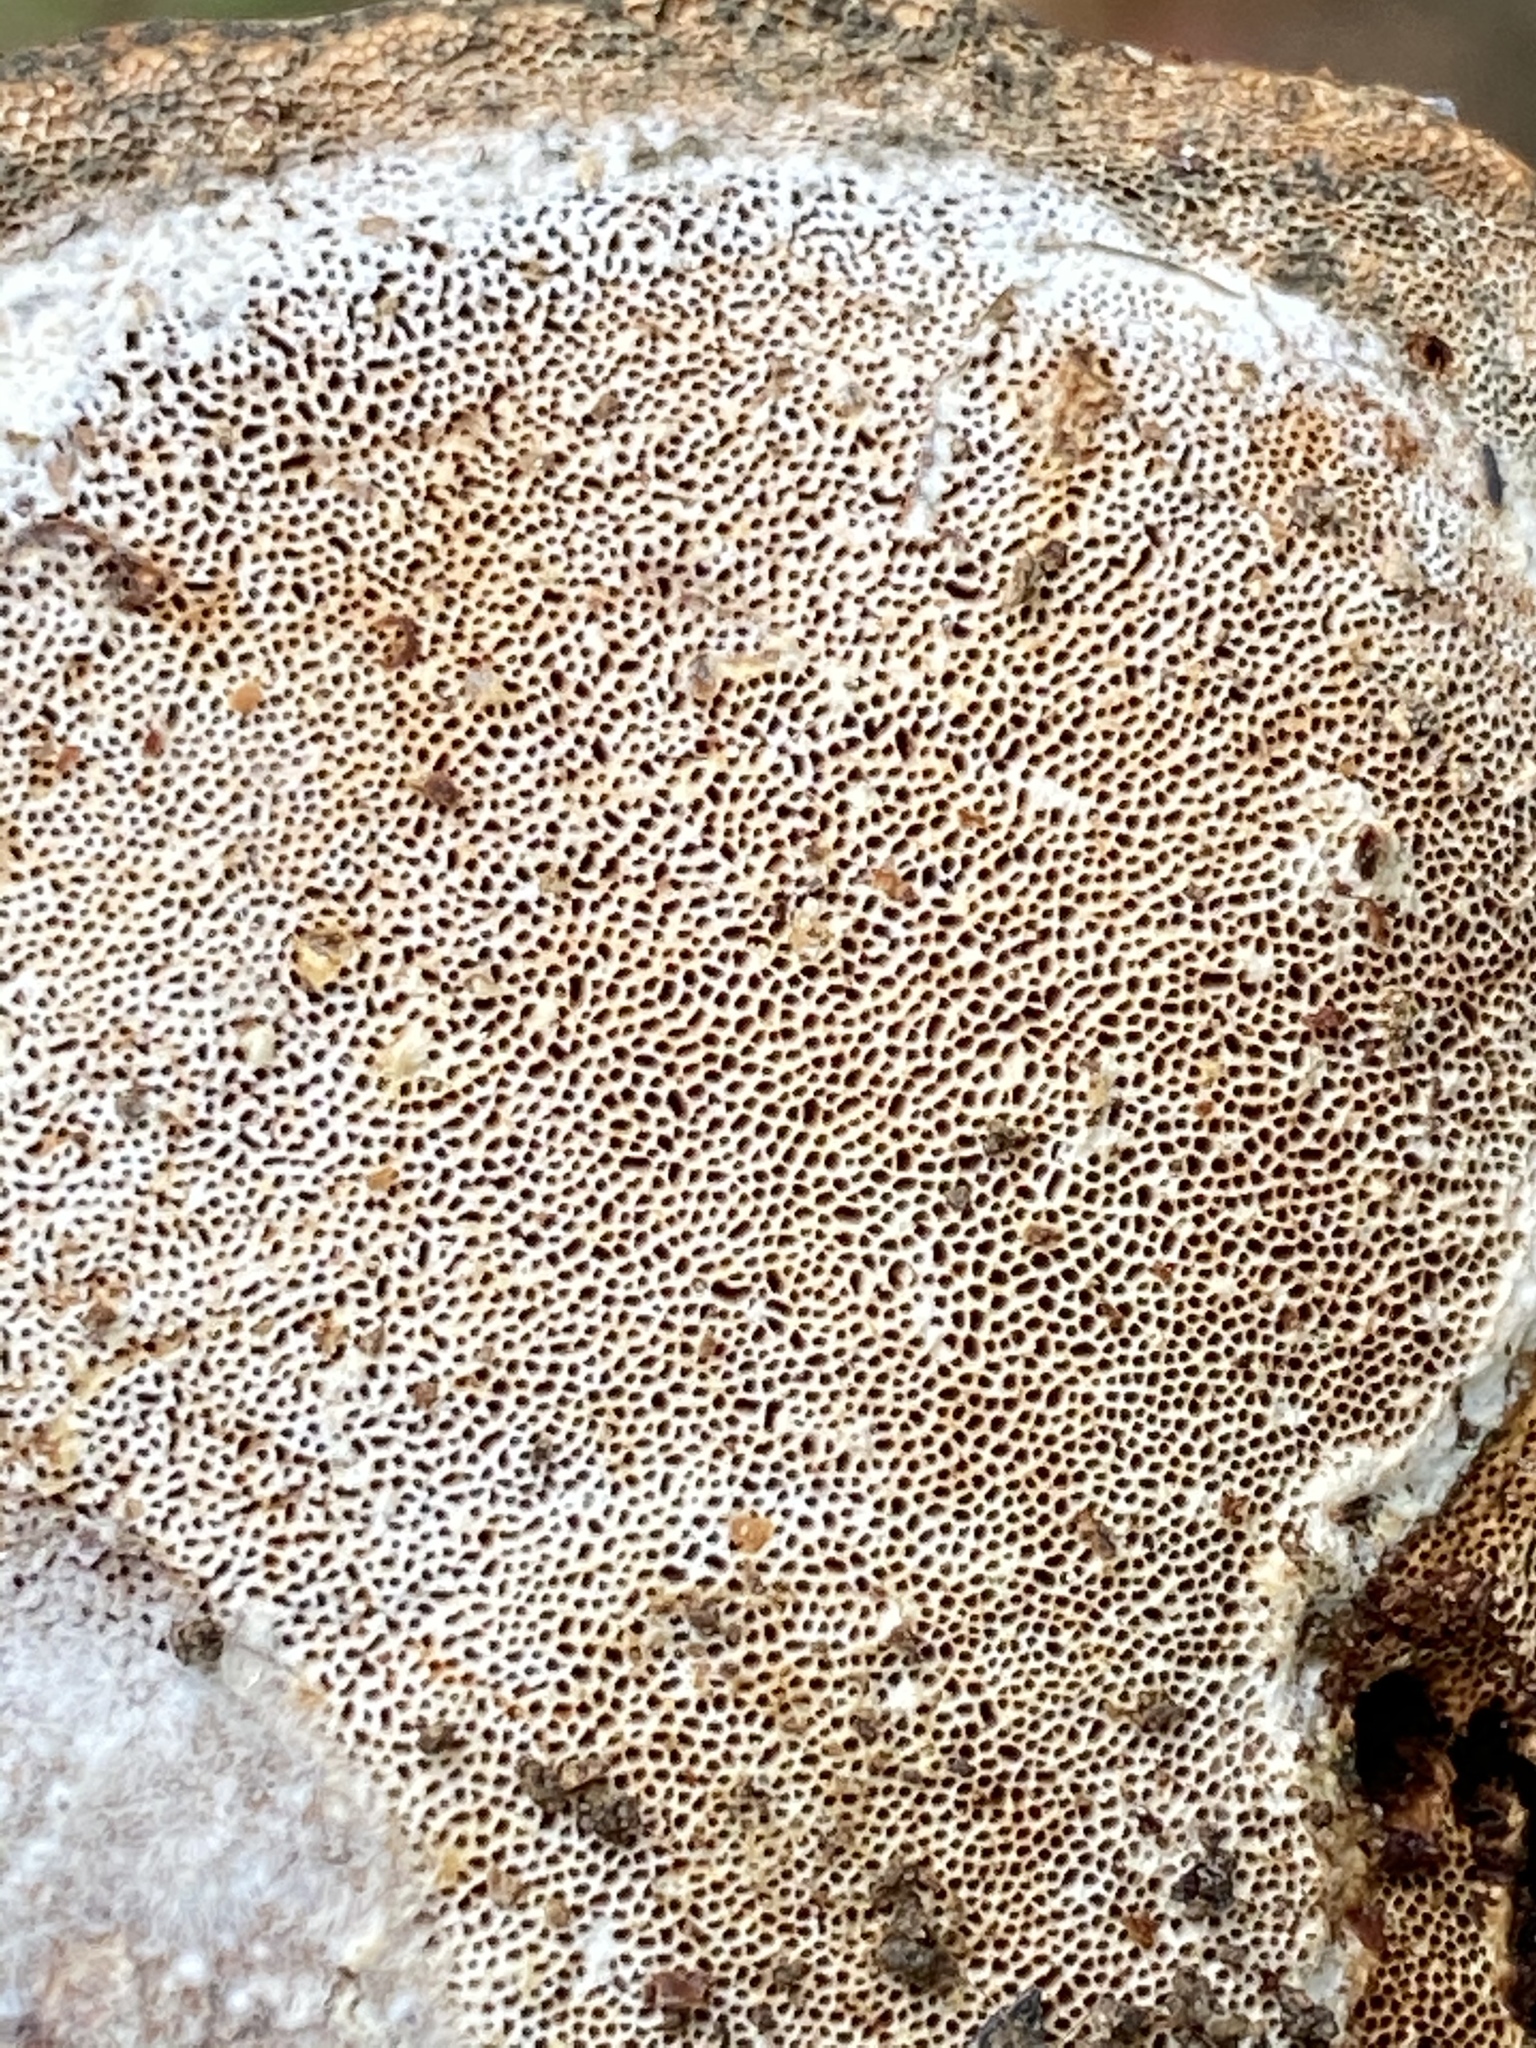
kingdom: Fungi
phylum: Basidiomycota
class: Agaricomycetes
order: Polyporales
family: Polyporaceae
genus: Ganoderma
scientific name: Ganoderma resinaceum
